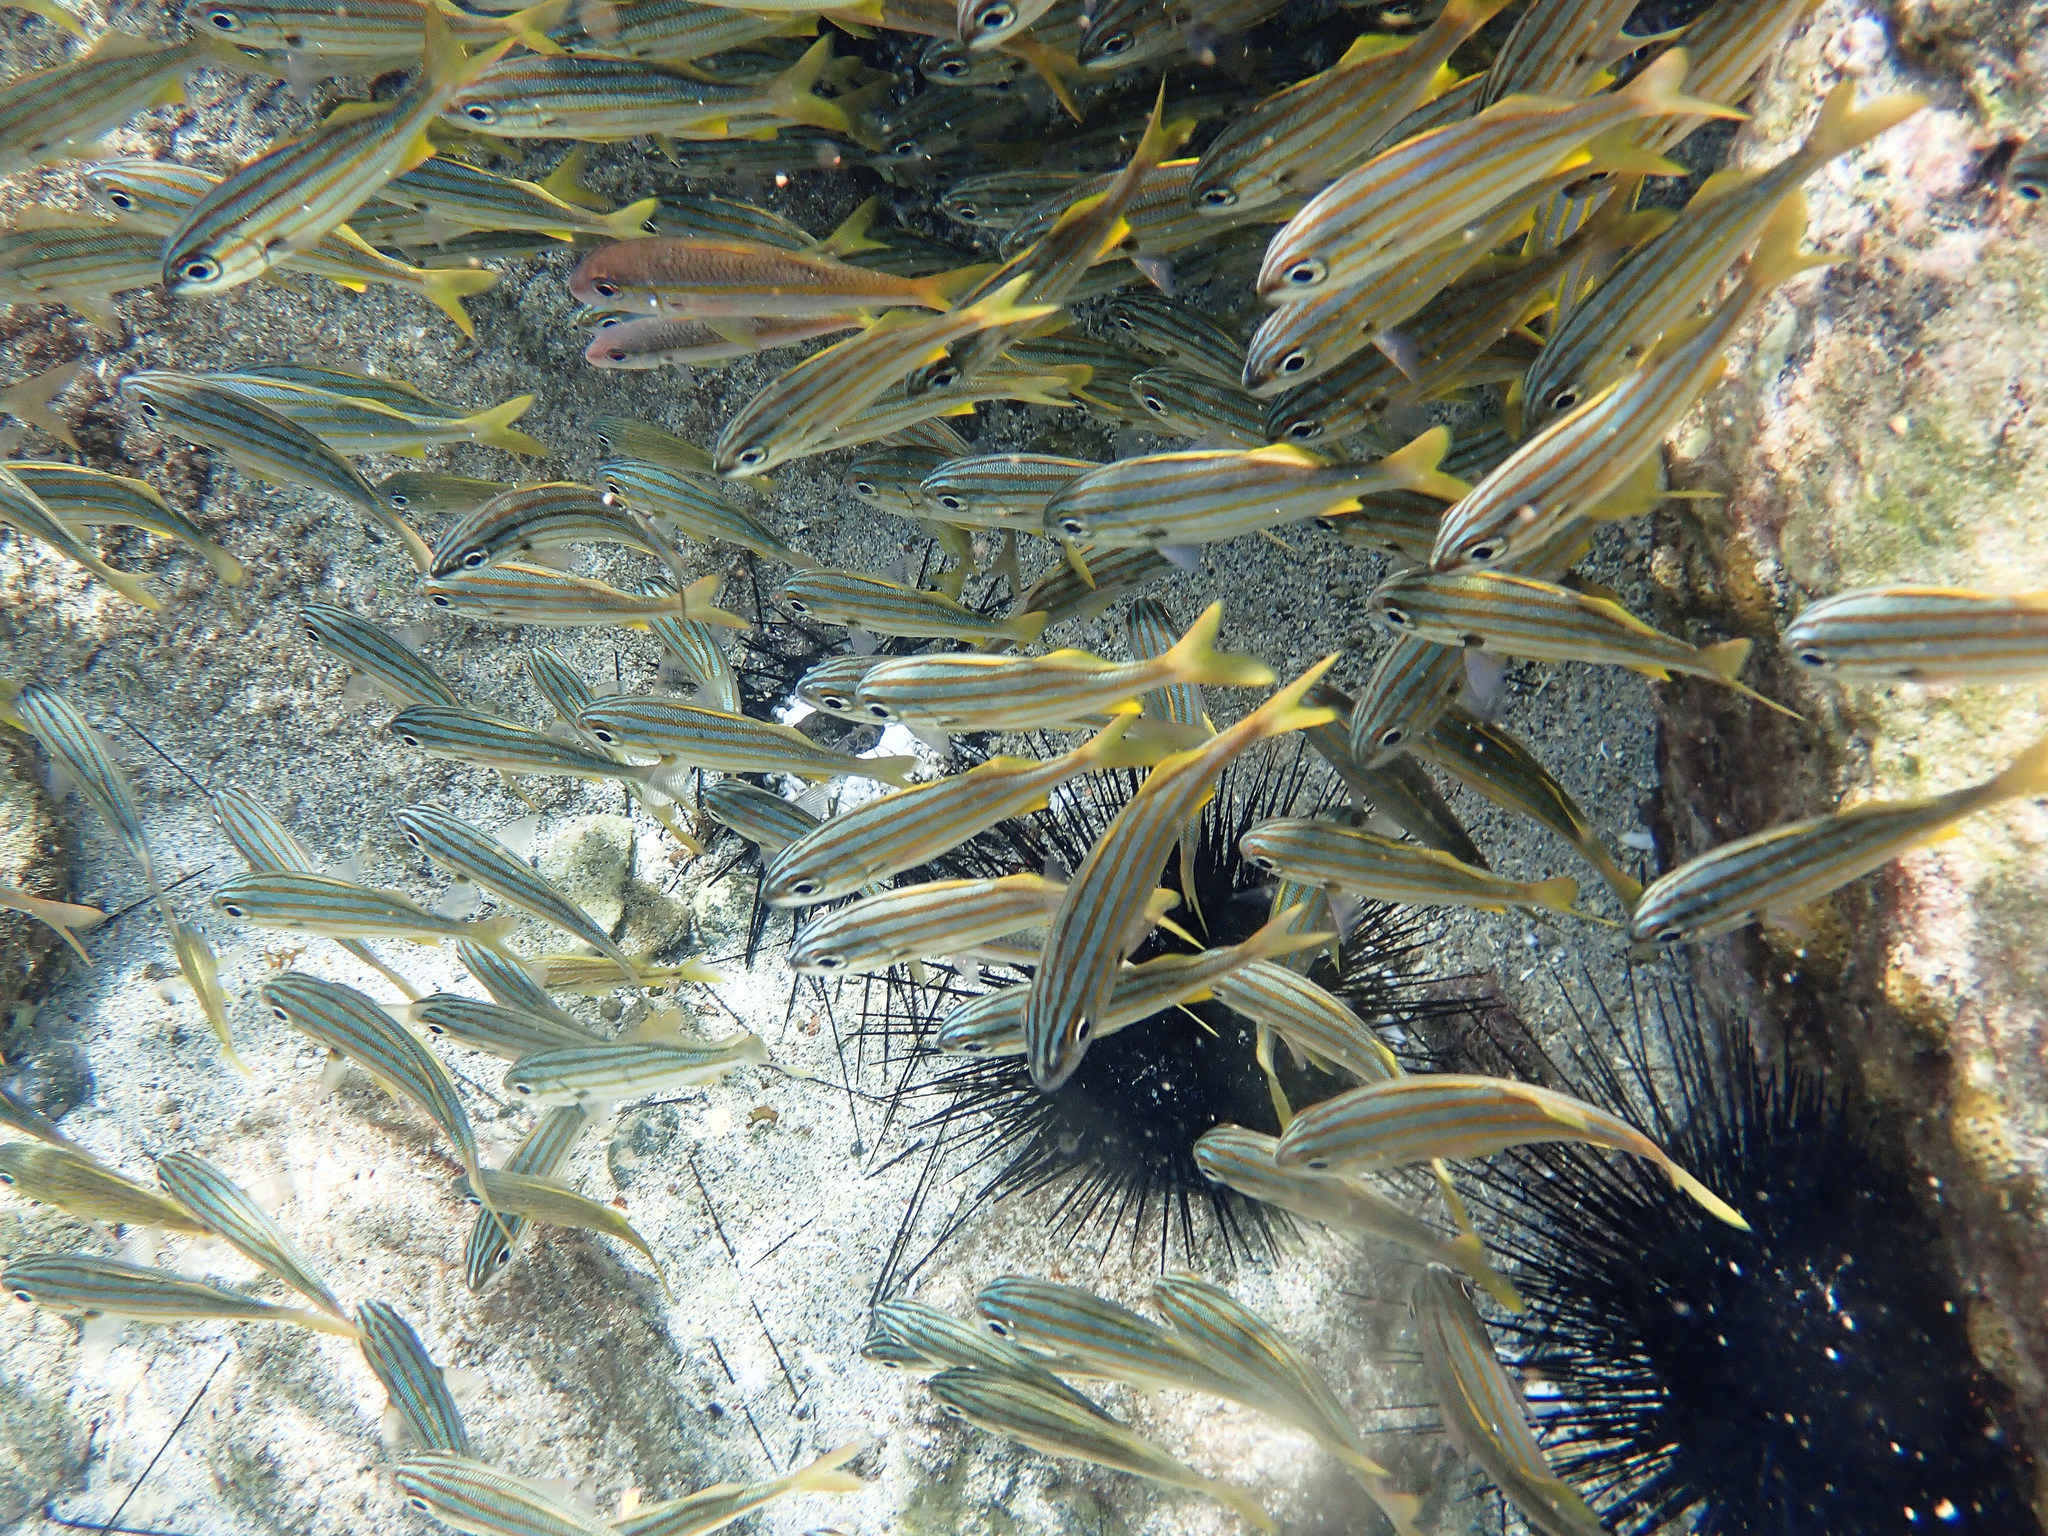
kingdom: Animalia
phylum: Chordata
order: Perciformes
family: Haemulidae
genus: Haemulon
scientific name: Haemulon chrysargyreum
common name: Smallmouth grunt
